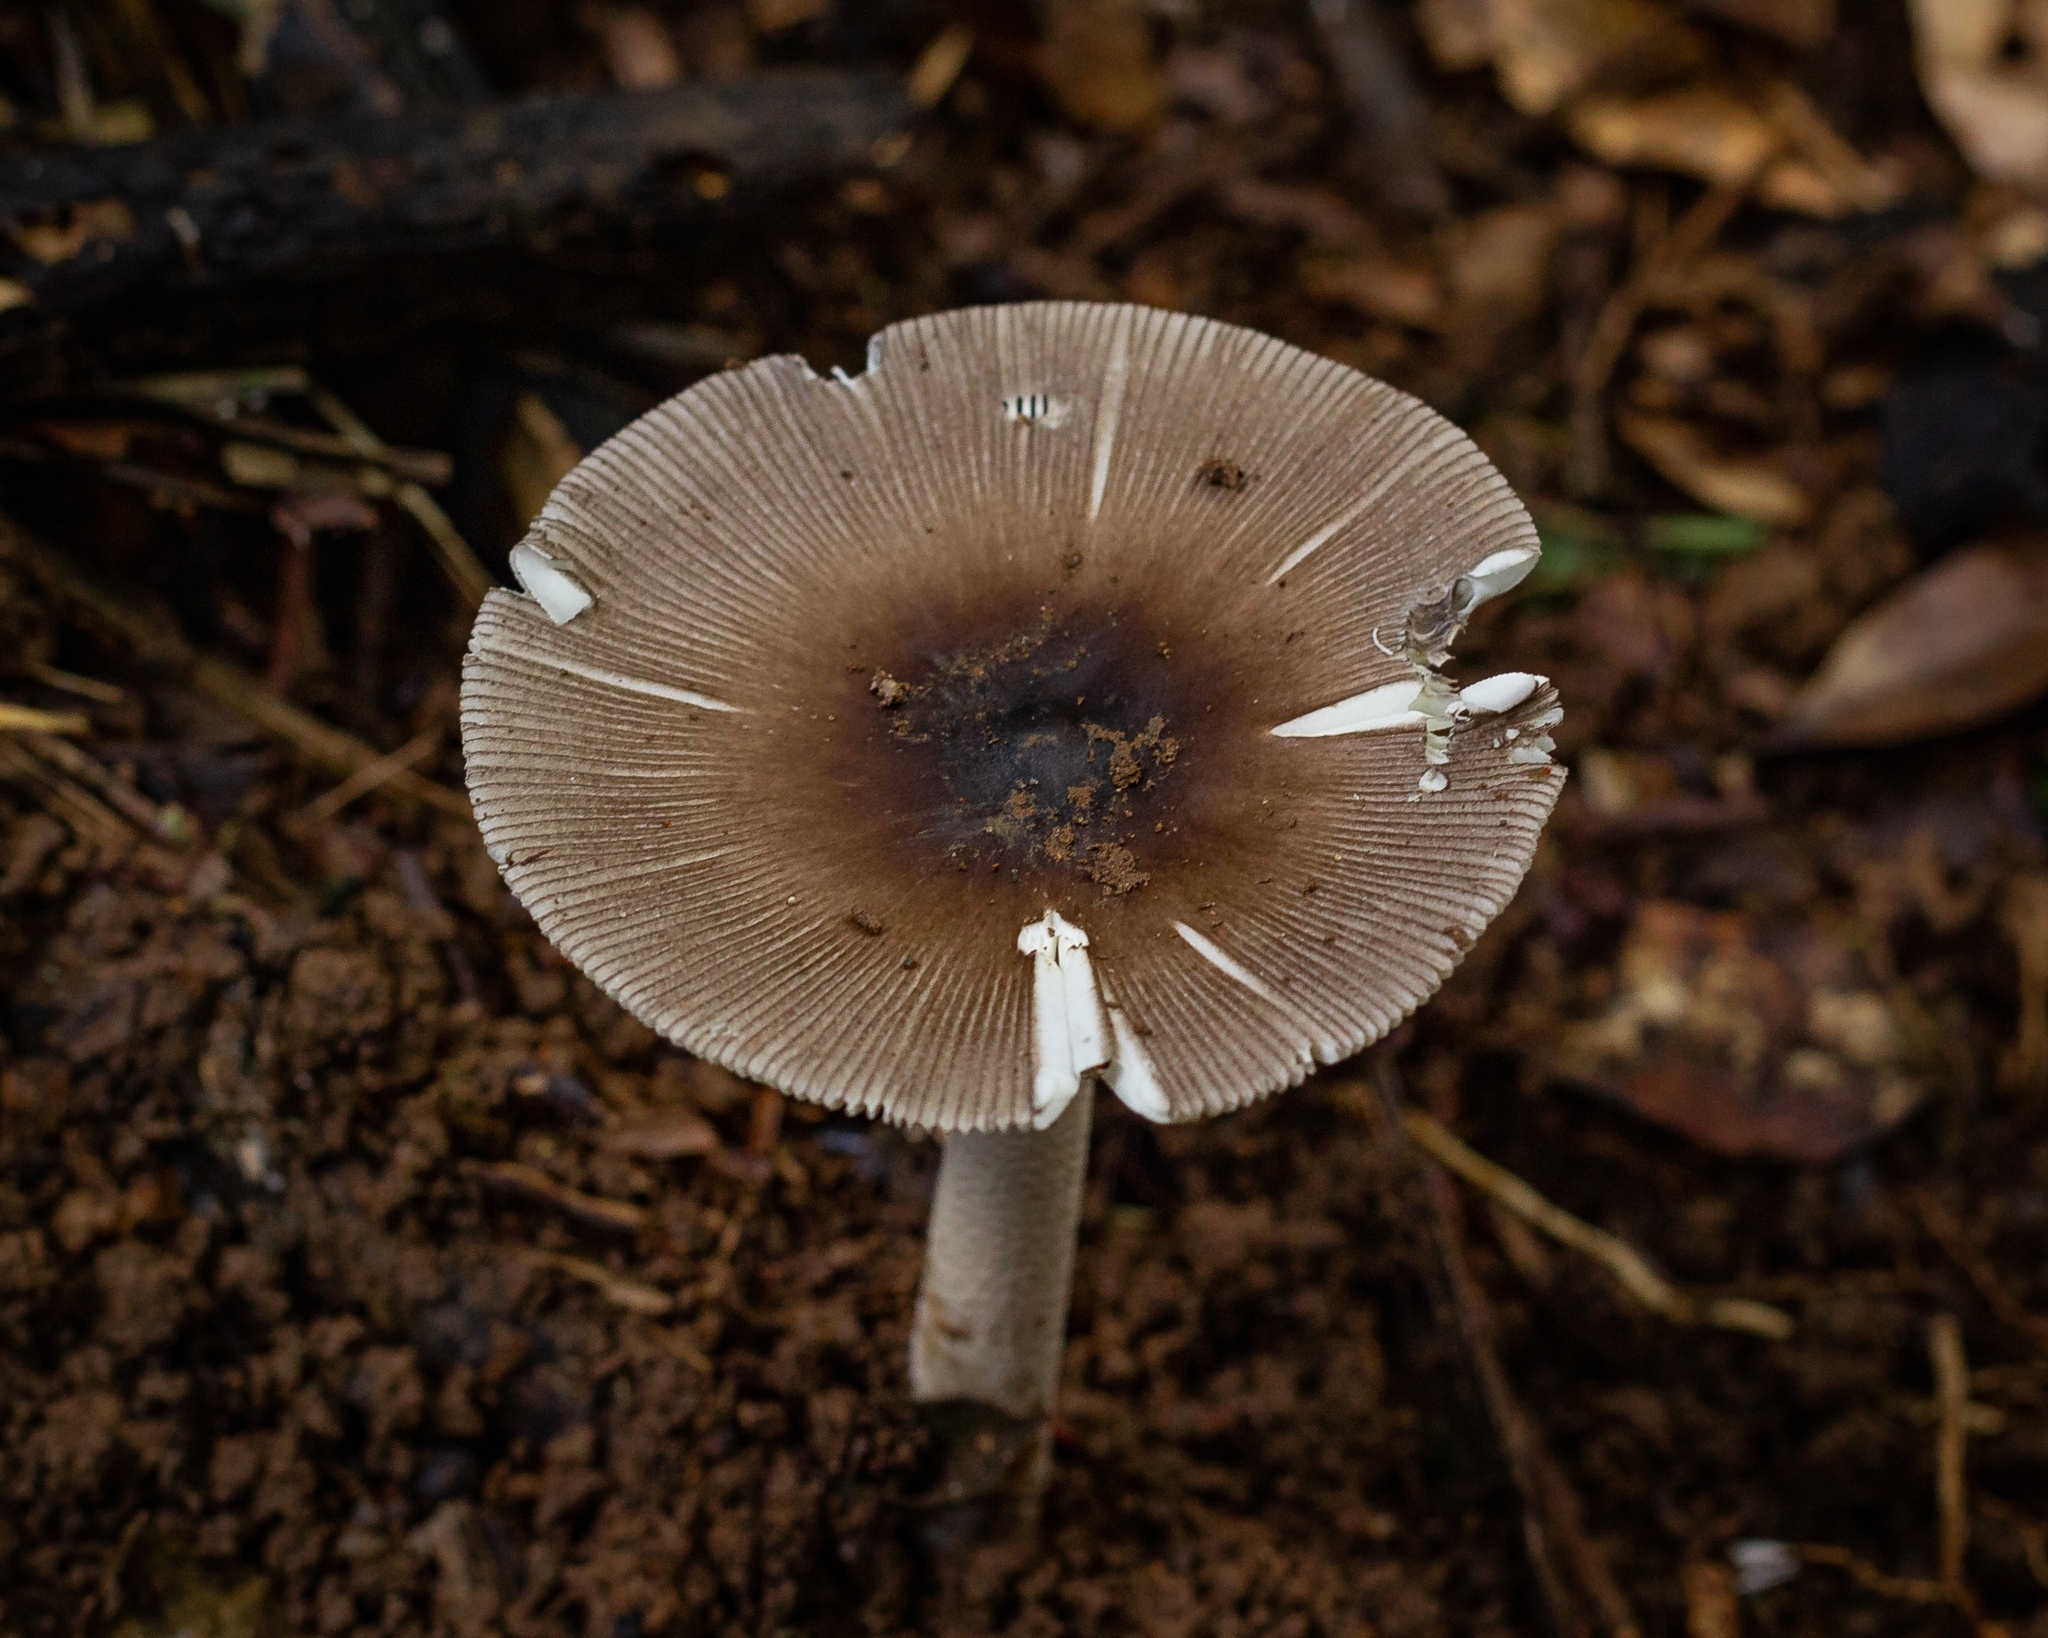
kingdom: Fungi
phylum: Basidiomycota
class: Agaricomycetes
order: Agaricales
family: Amanitaceae
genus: Amanita
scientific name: Amanita coacta
